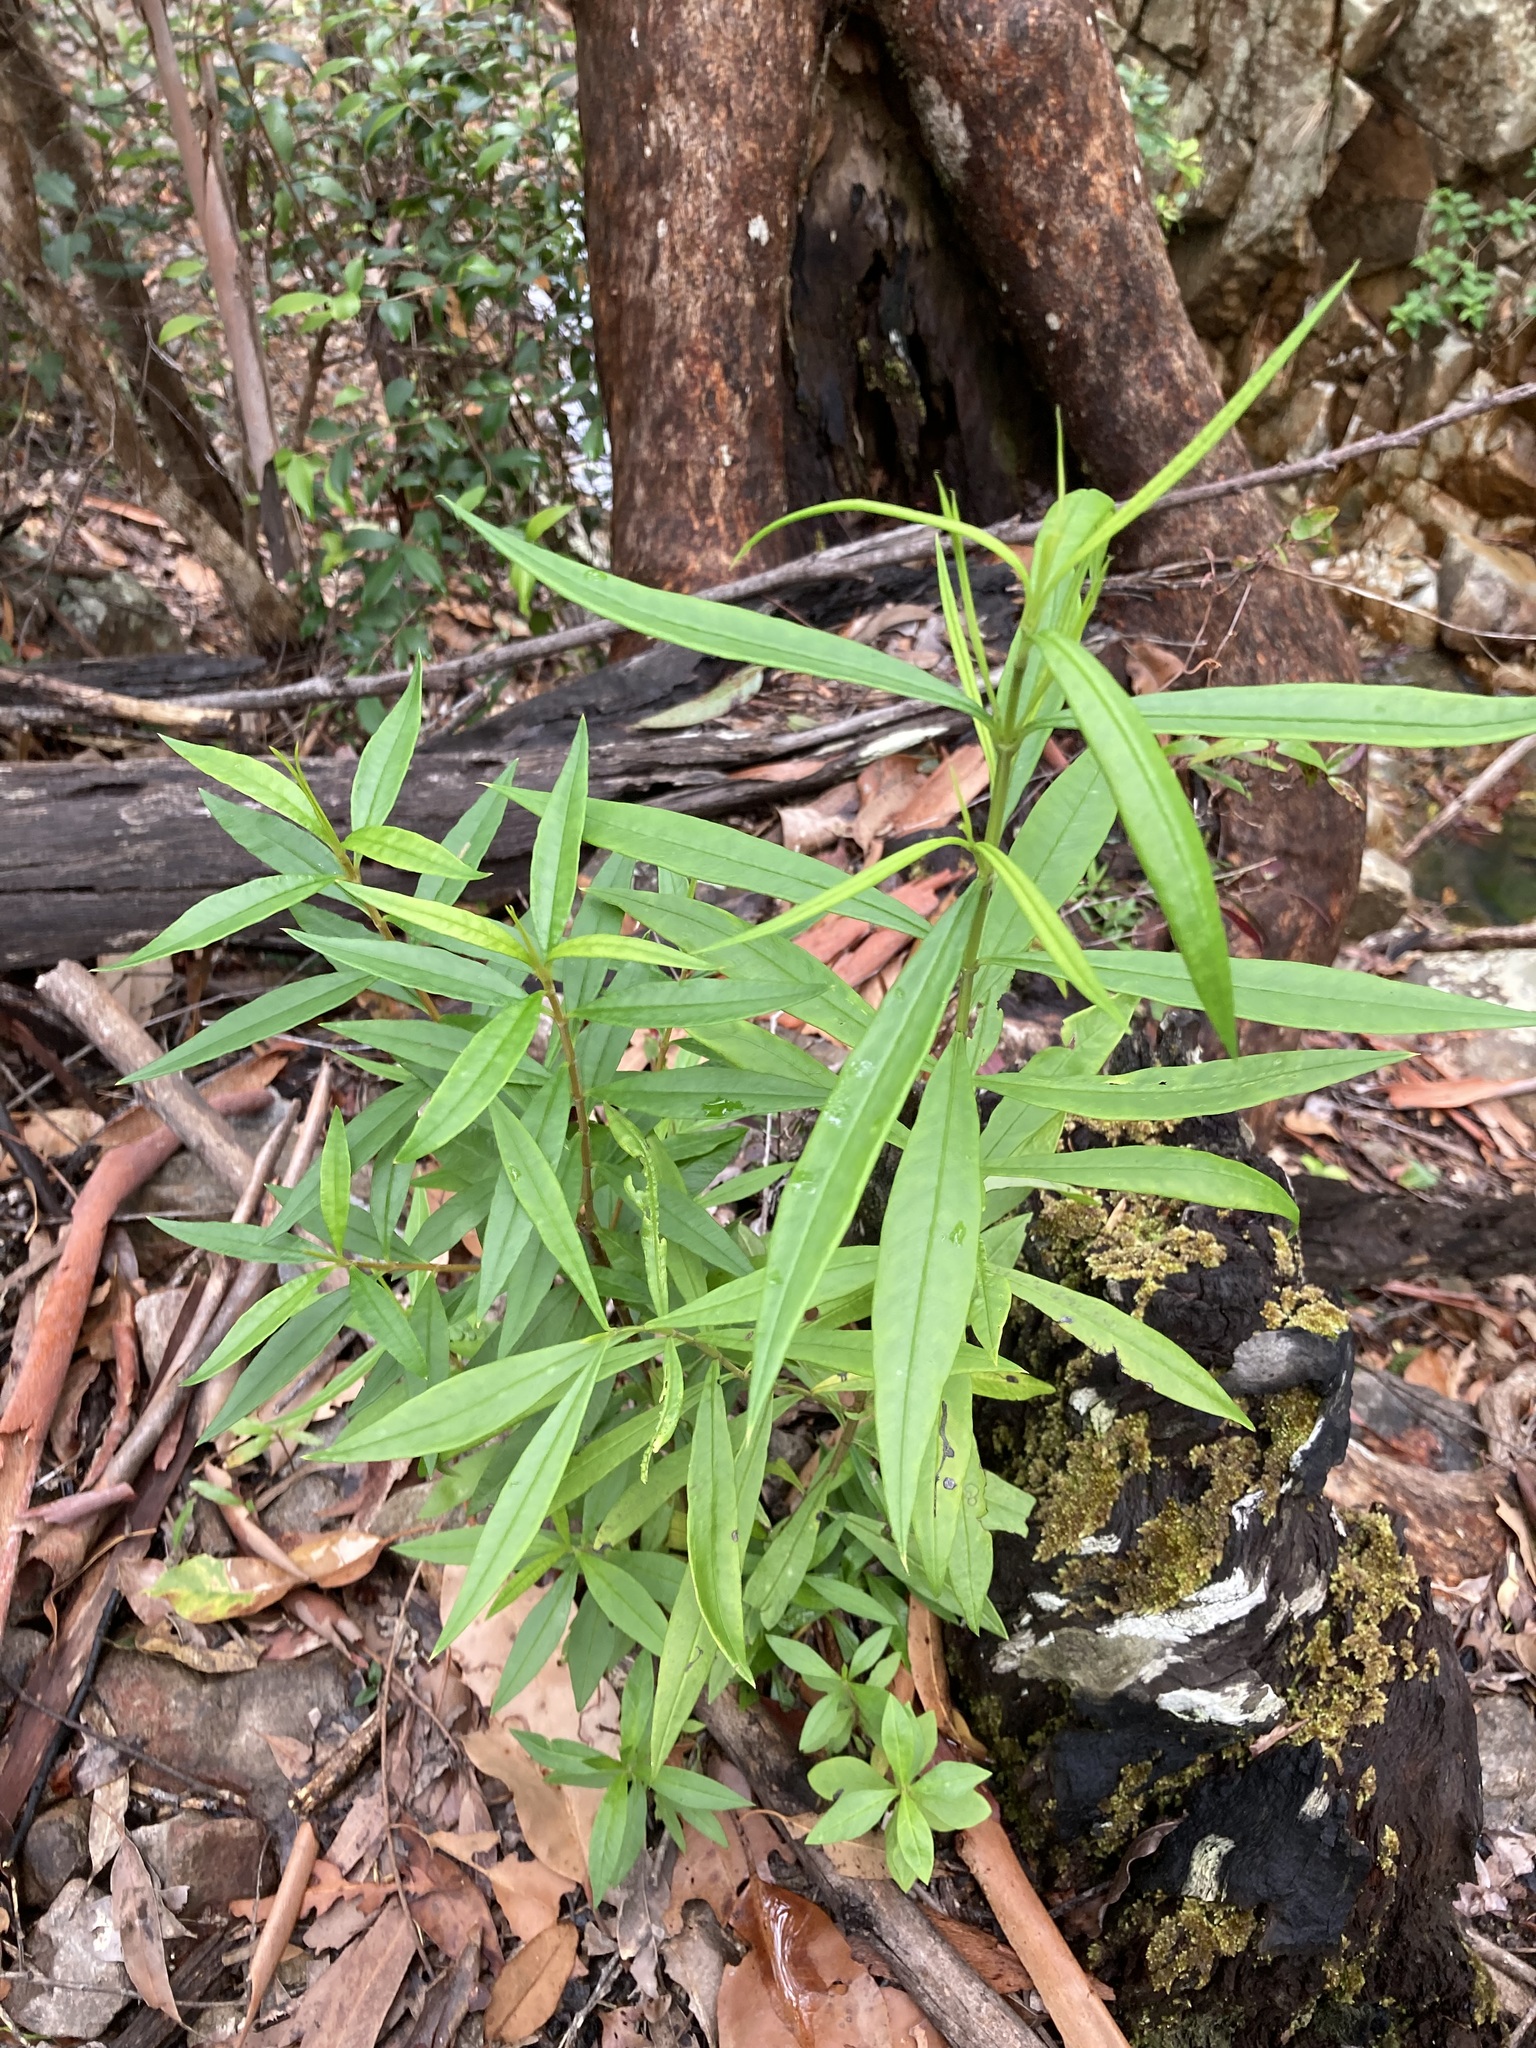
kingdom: Plantae
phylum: Tracheophyta
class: Magnoliopsida
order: Gentianales
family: Loganiaceae
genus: Logania
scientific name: Logania albiflora
